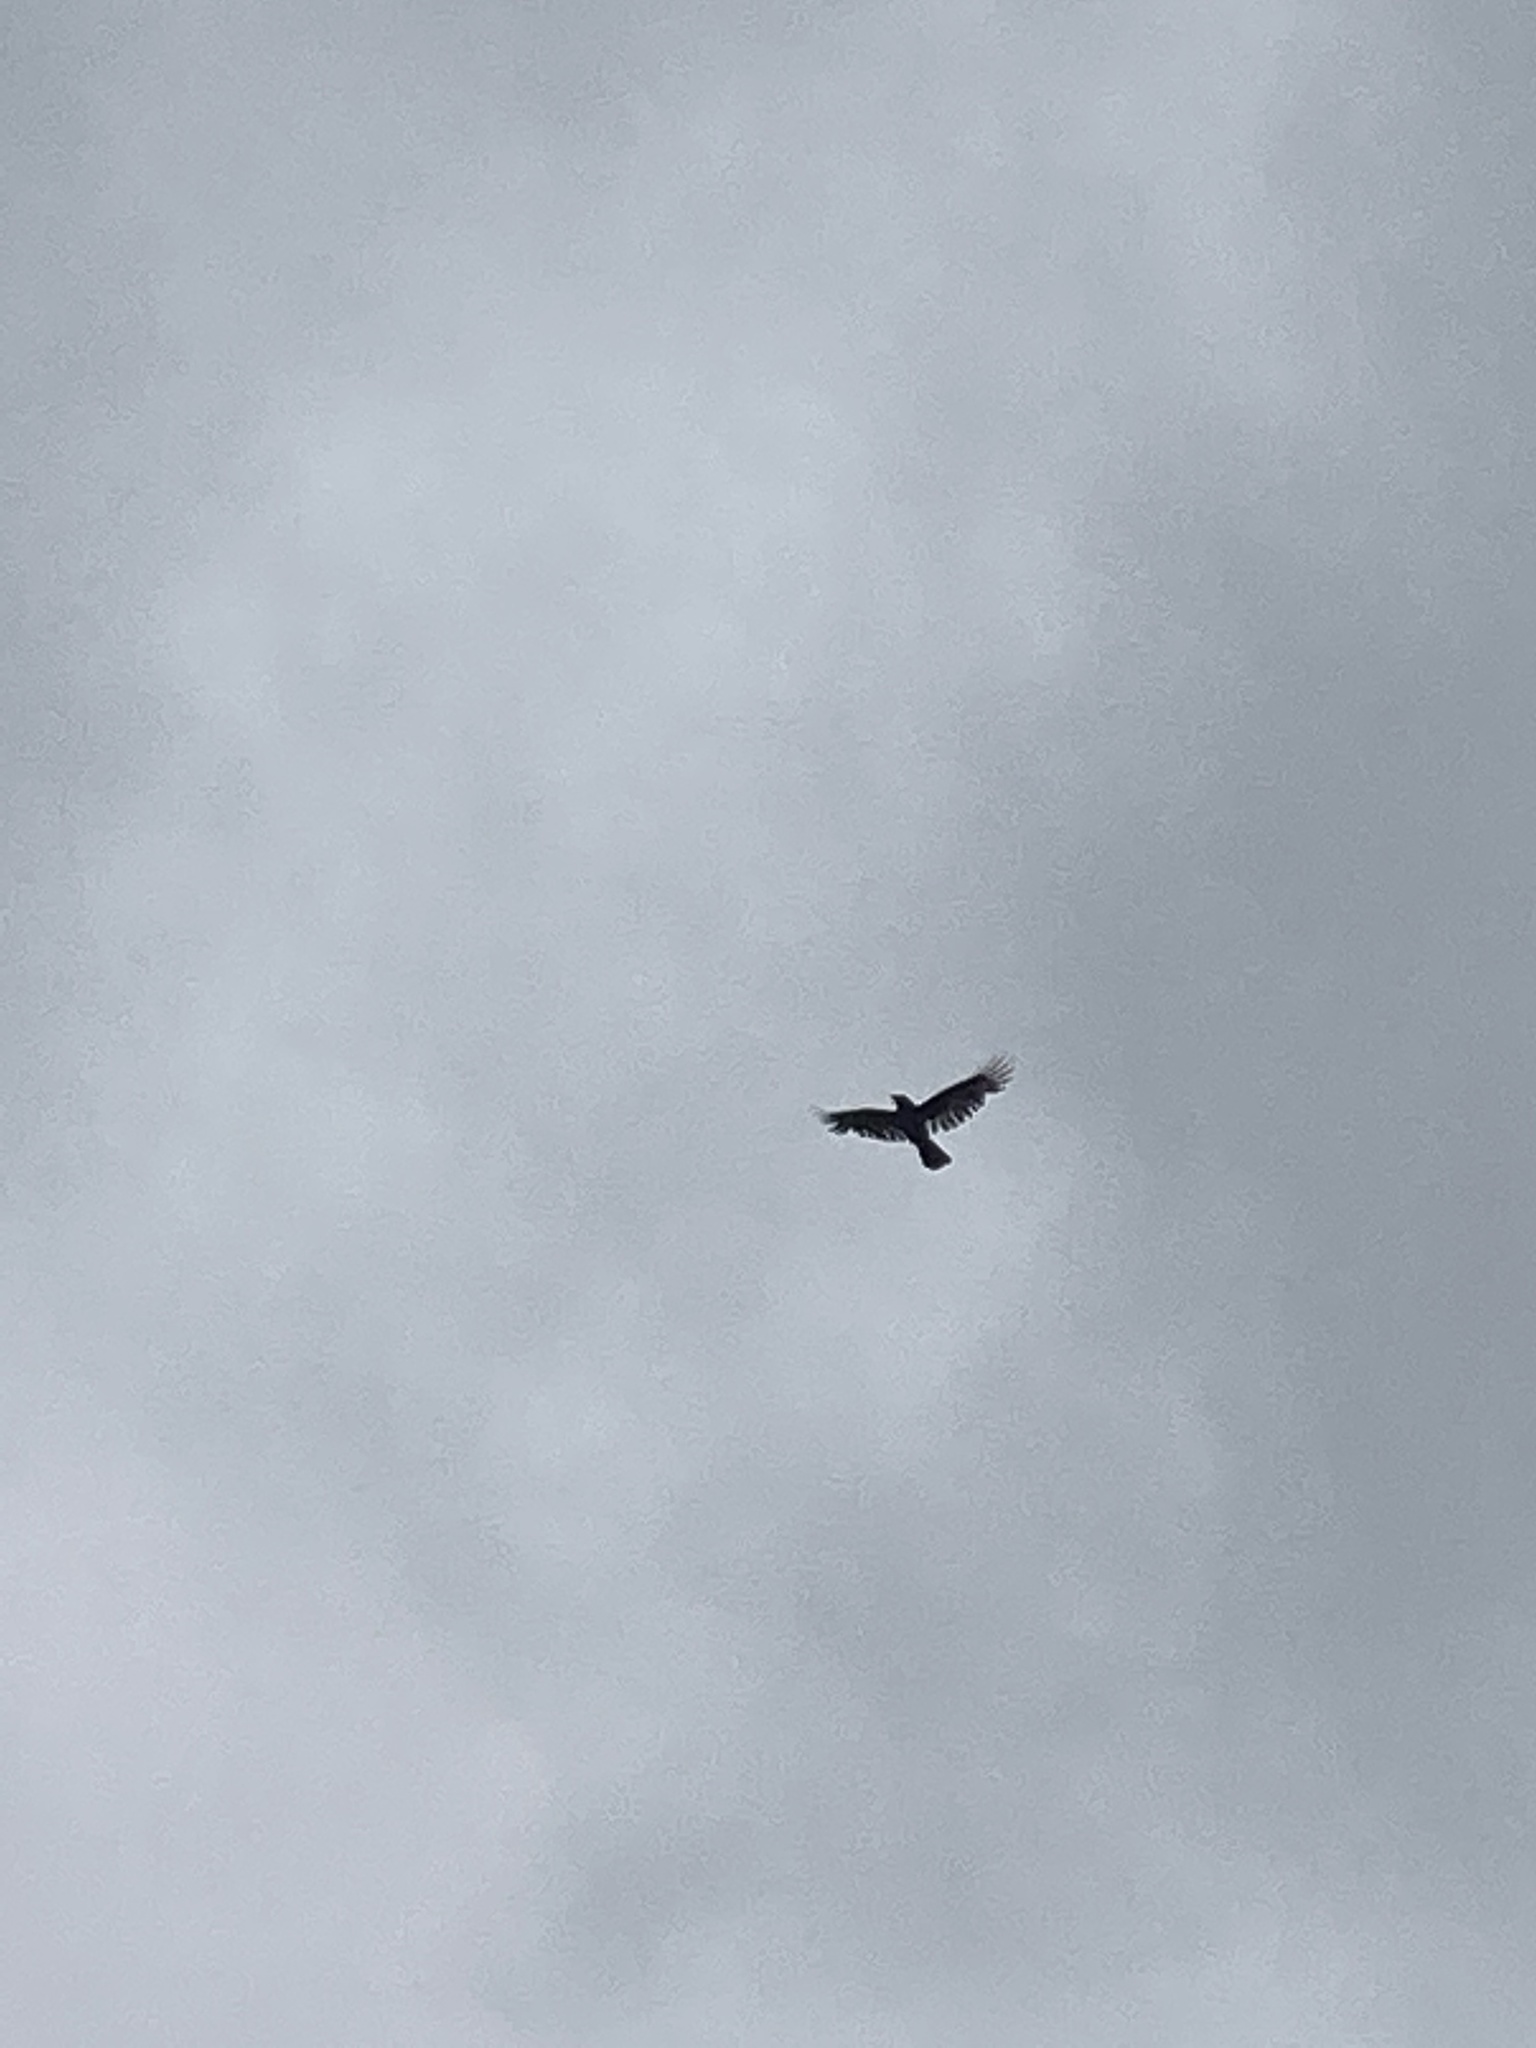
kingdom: Animalia
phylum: Chordata
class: Aves
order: Accipitriformes
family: Cathartidae
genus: Coragyps
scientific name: Coragyps atratus
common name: Black vulture
